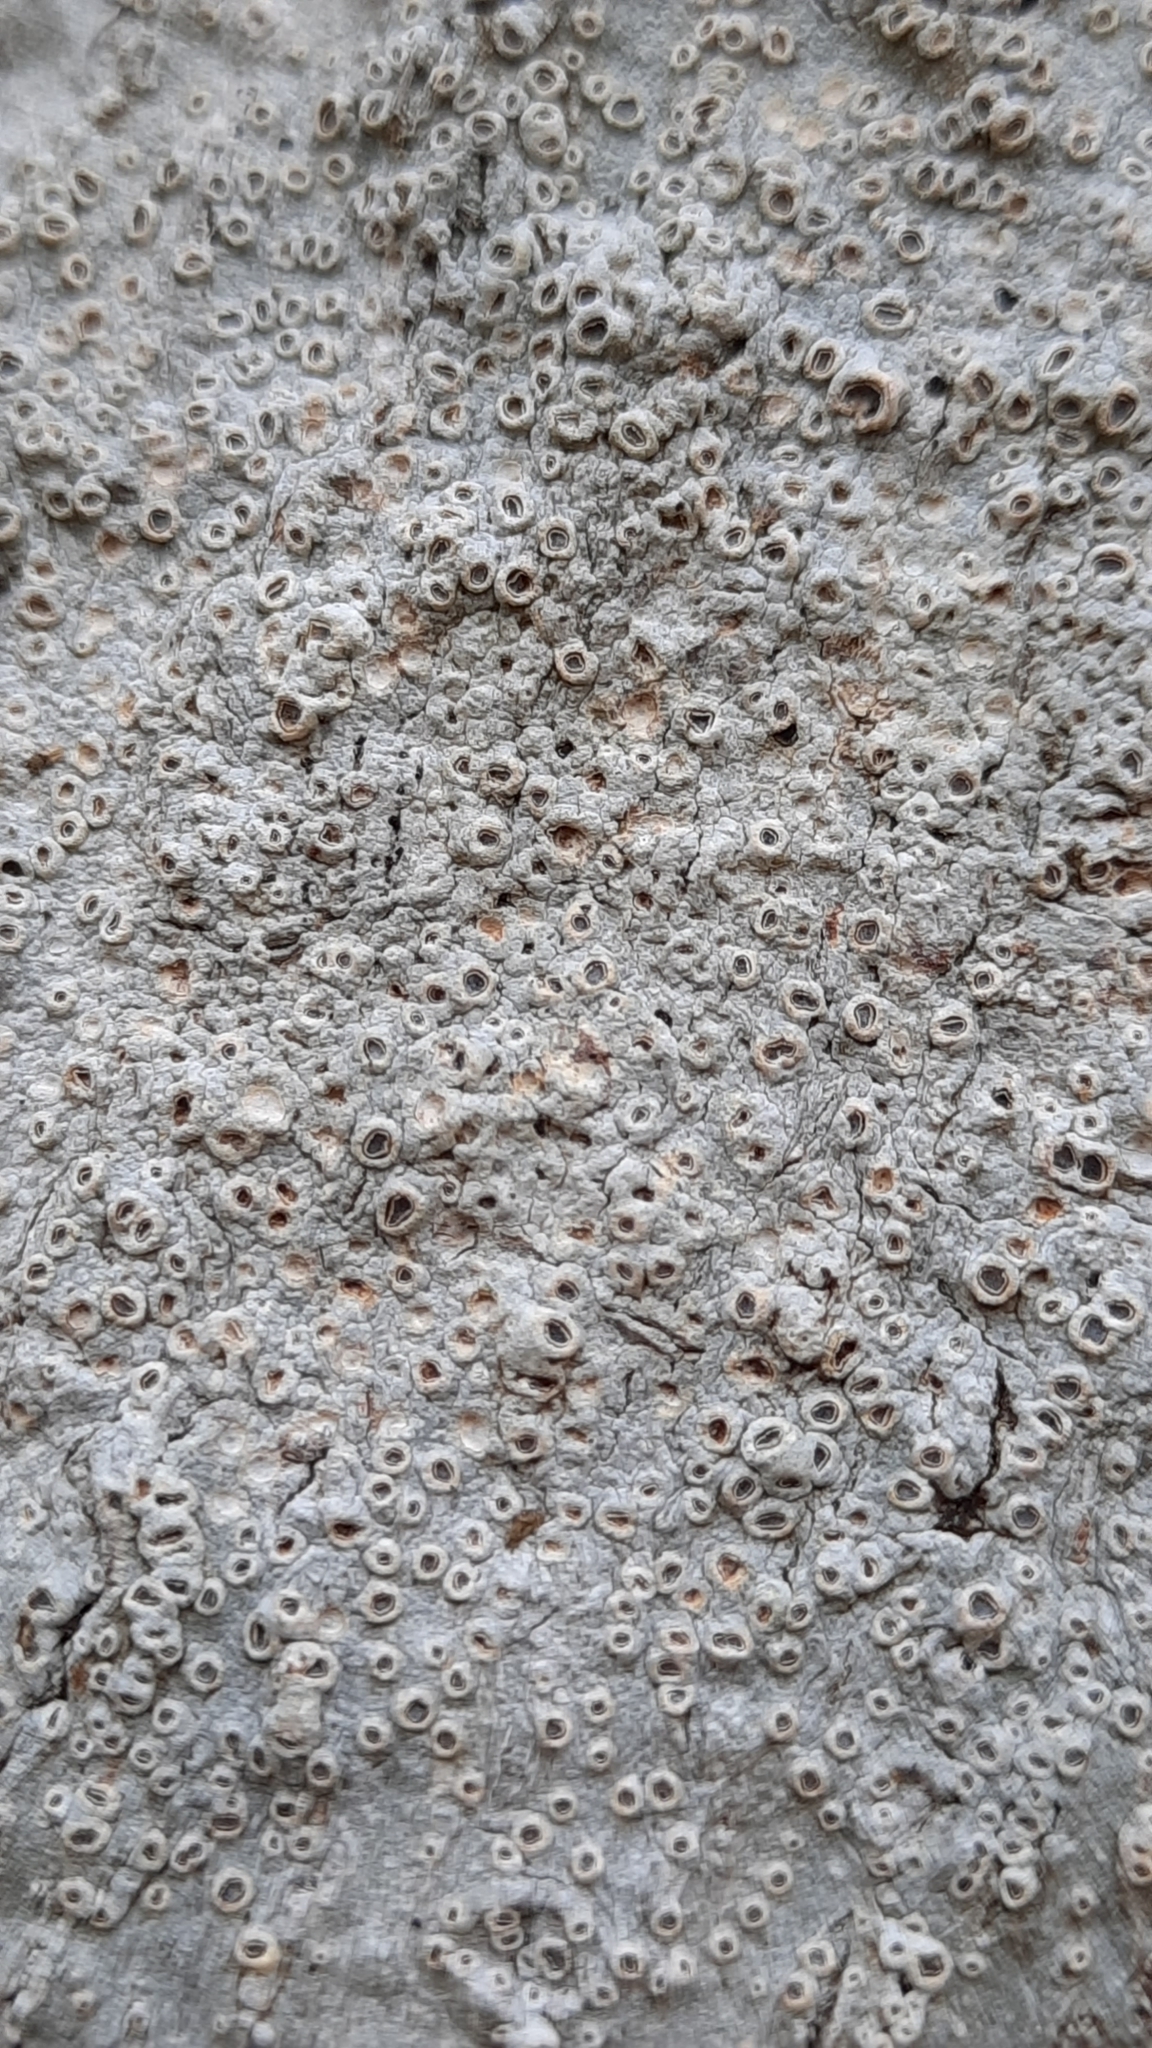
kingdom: Fungi
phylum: Ascomycota
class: Lecanoromycetes
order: Ostropales
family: Graphidaceae
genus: Thelotrema
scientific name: Thelotrema lepadinum
